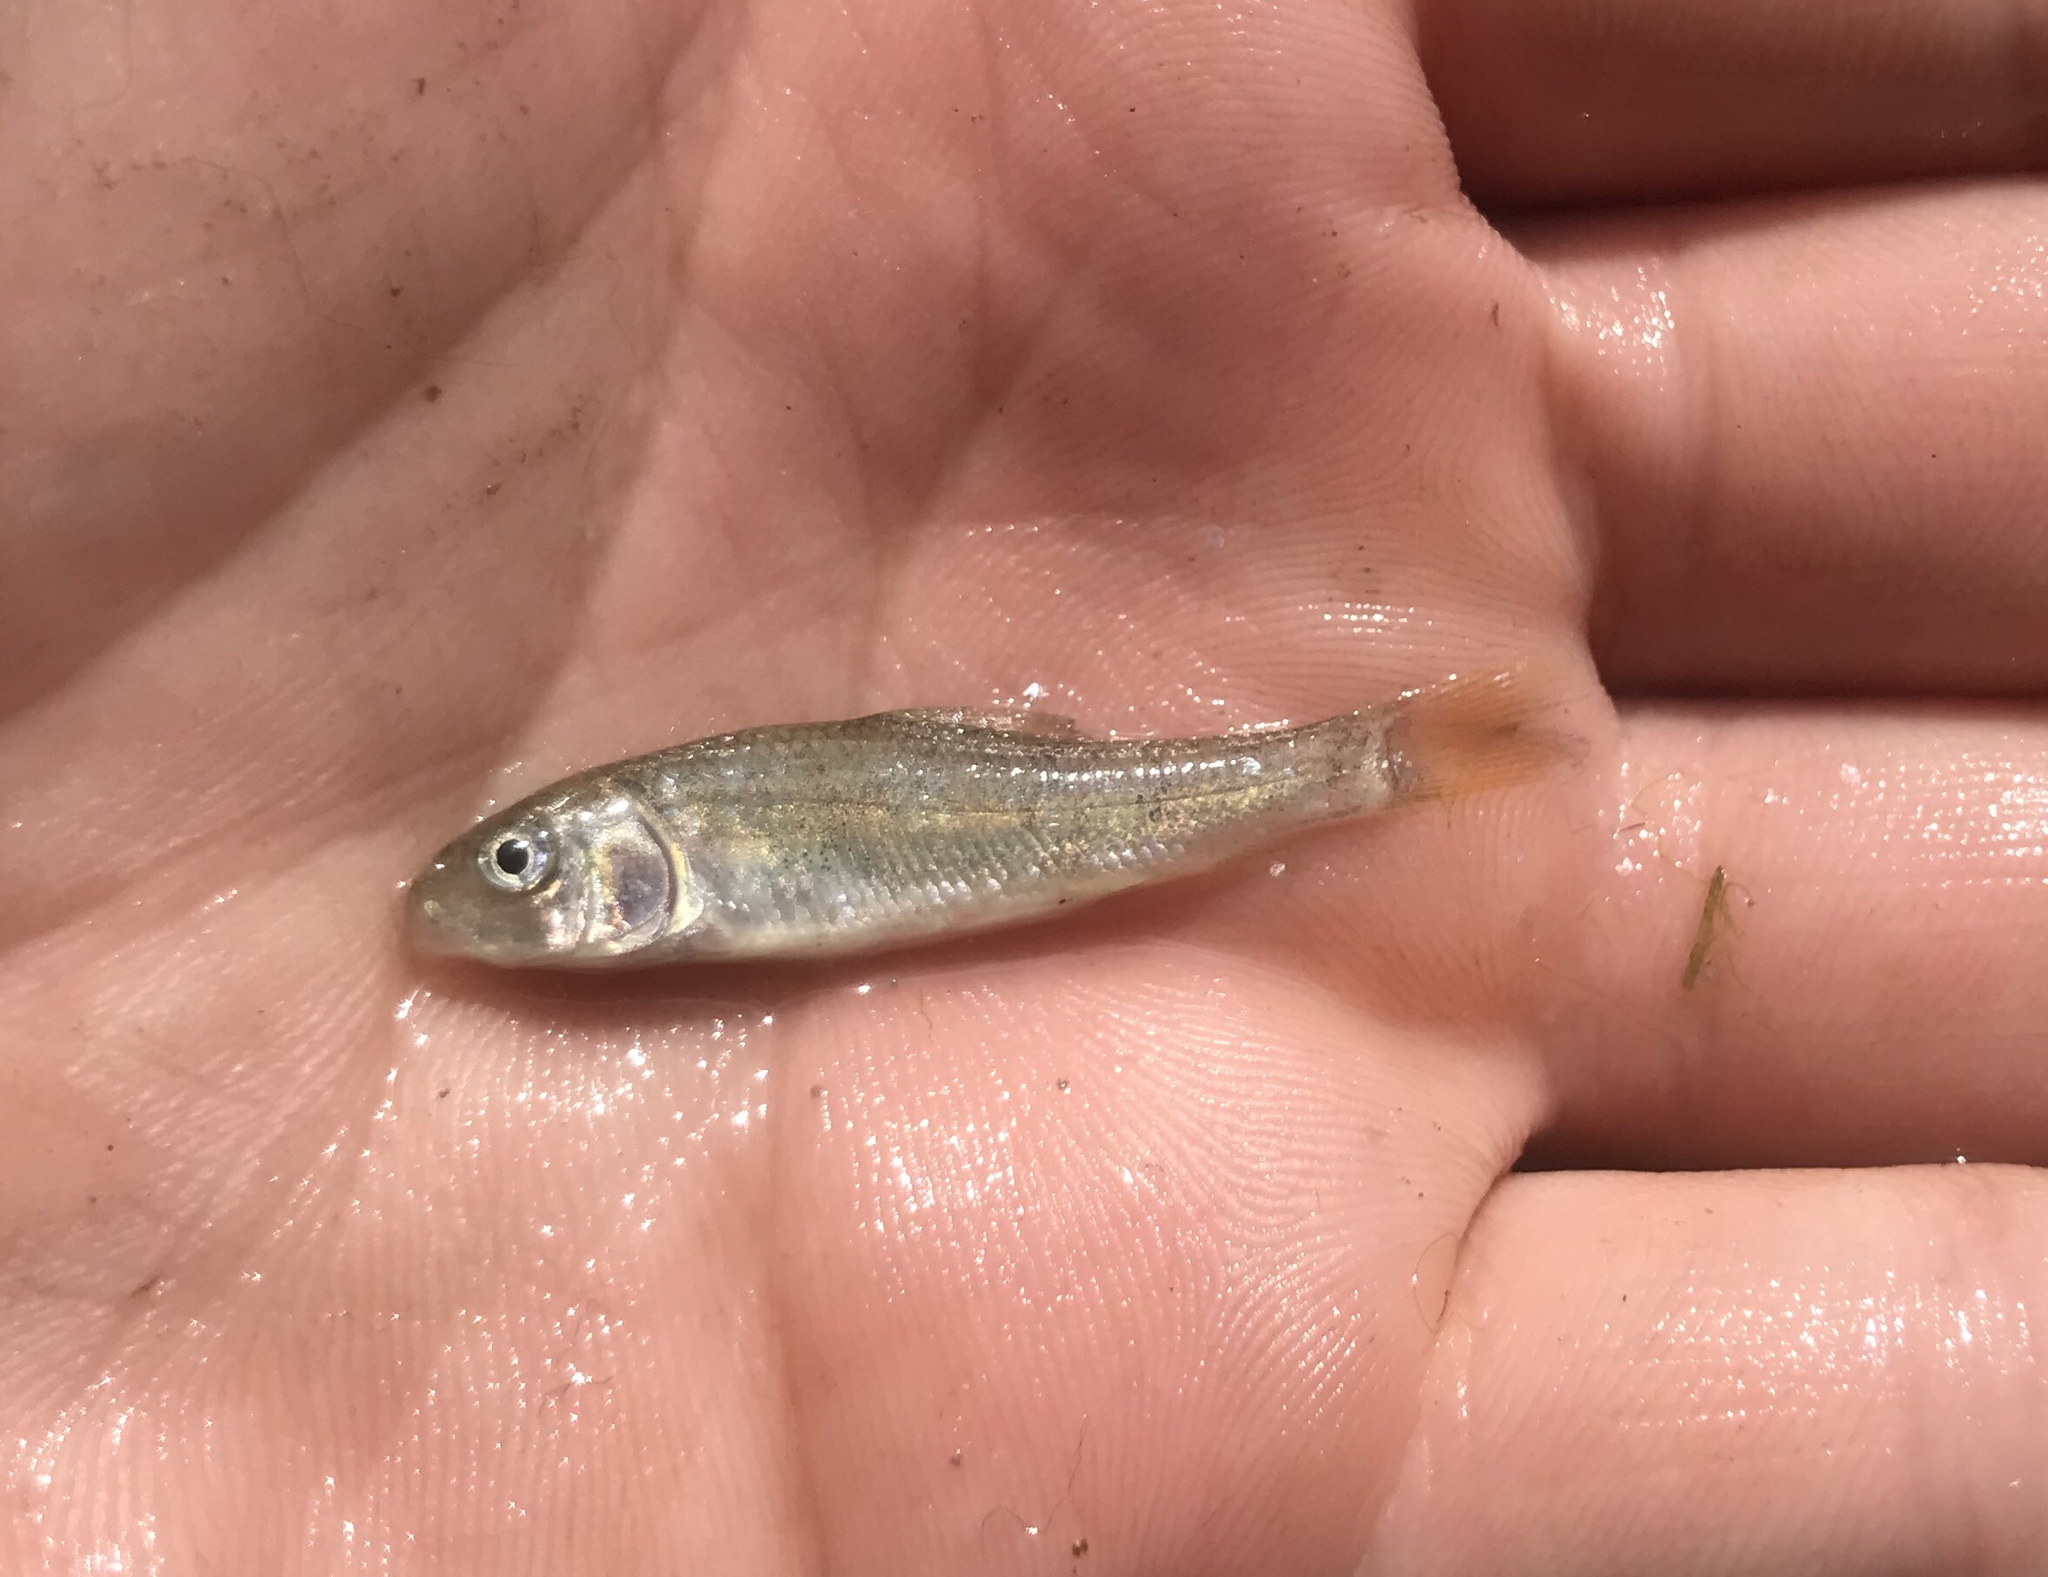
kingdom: Animalia
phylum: Chordata
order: Cypriniformes
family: Catostomidae
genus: Moxostoma
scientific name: Moxostoma congestum
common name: Gray redhorse
